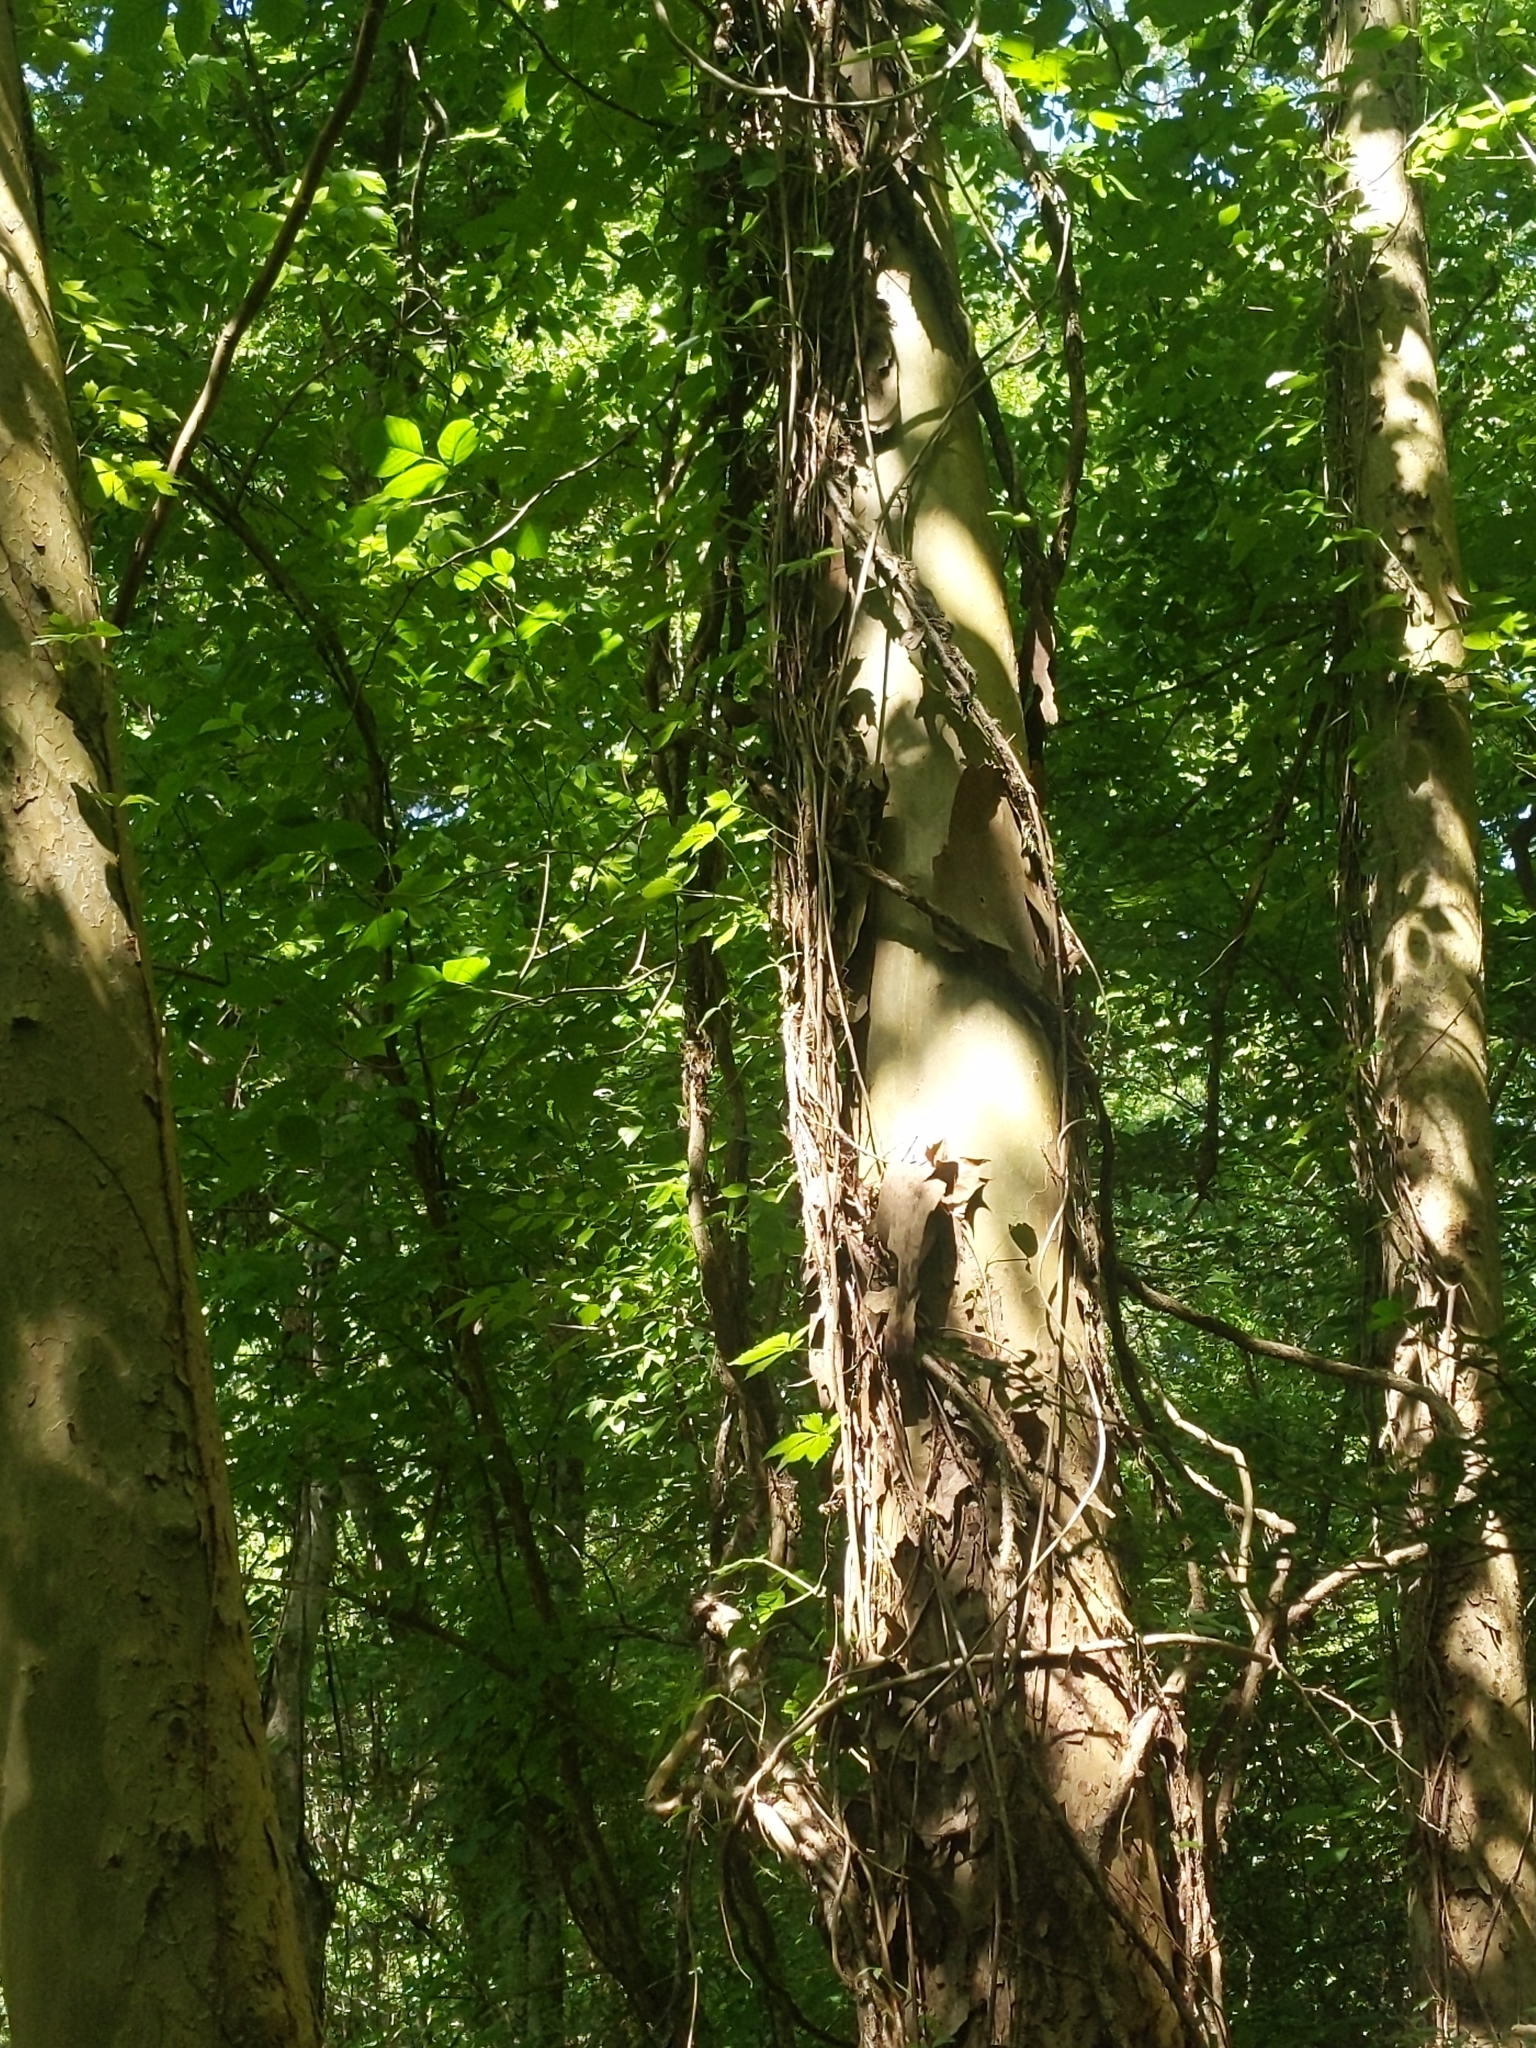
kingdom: Plantae
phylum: Tracheophyta
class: Magnoliopsida
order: Proteales
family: Platanaceae
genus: Platanus
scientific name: Platanus occidentalis
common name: American sycamore
